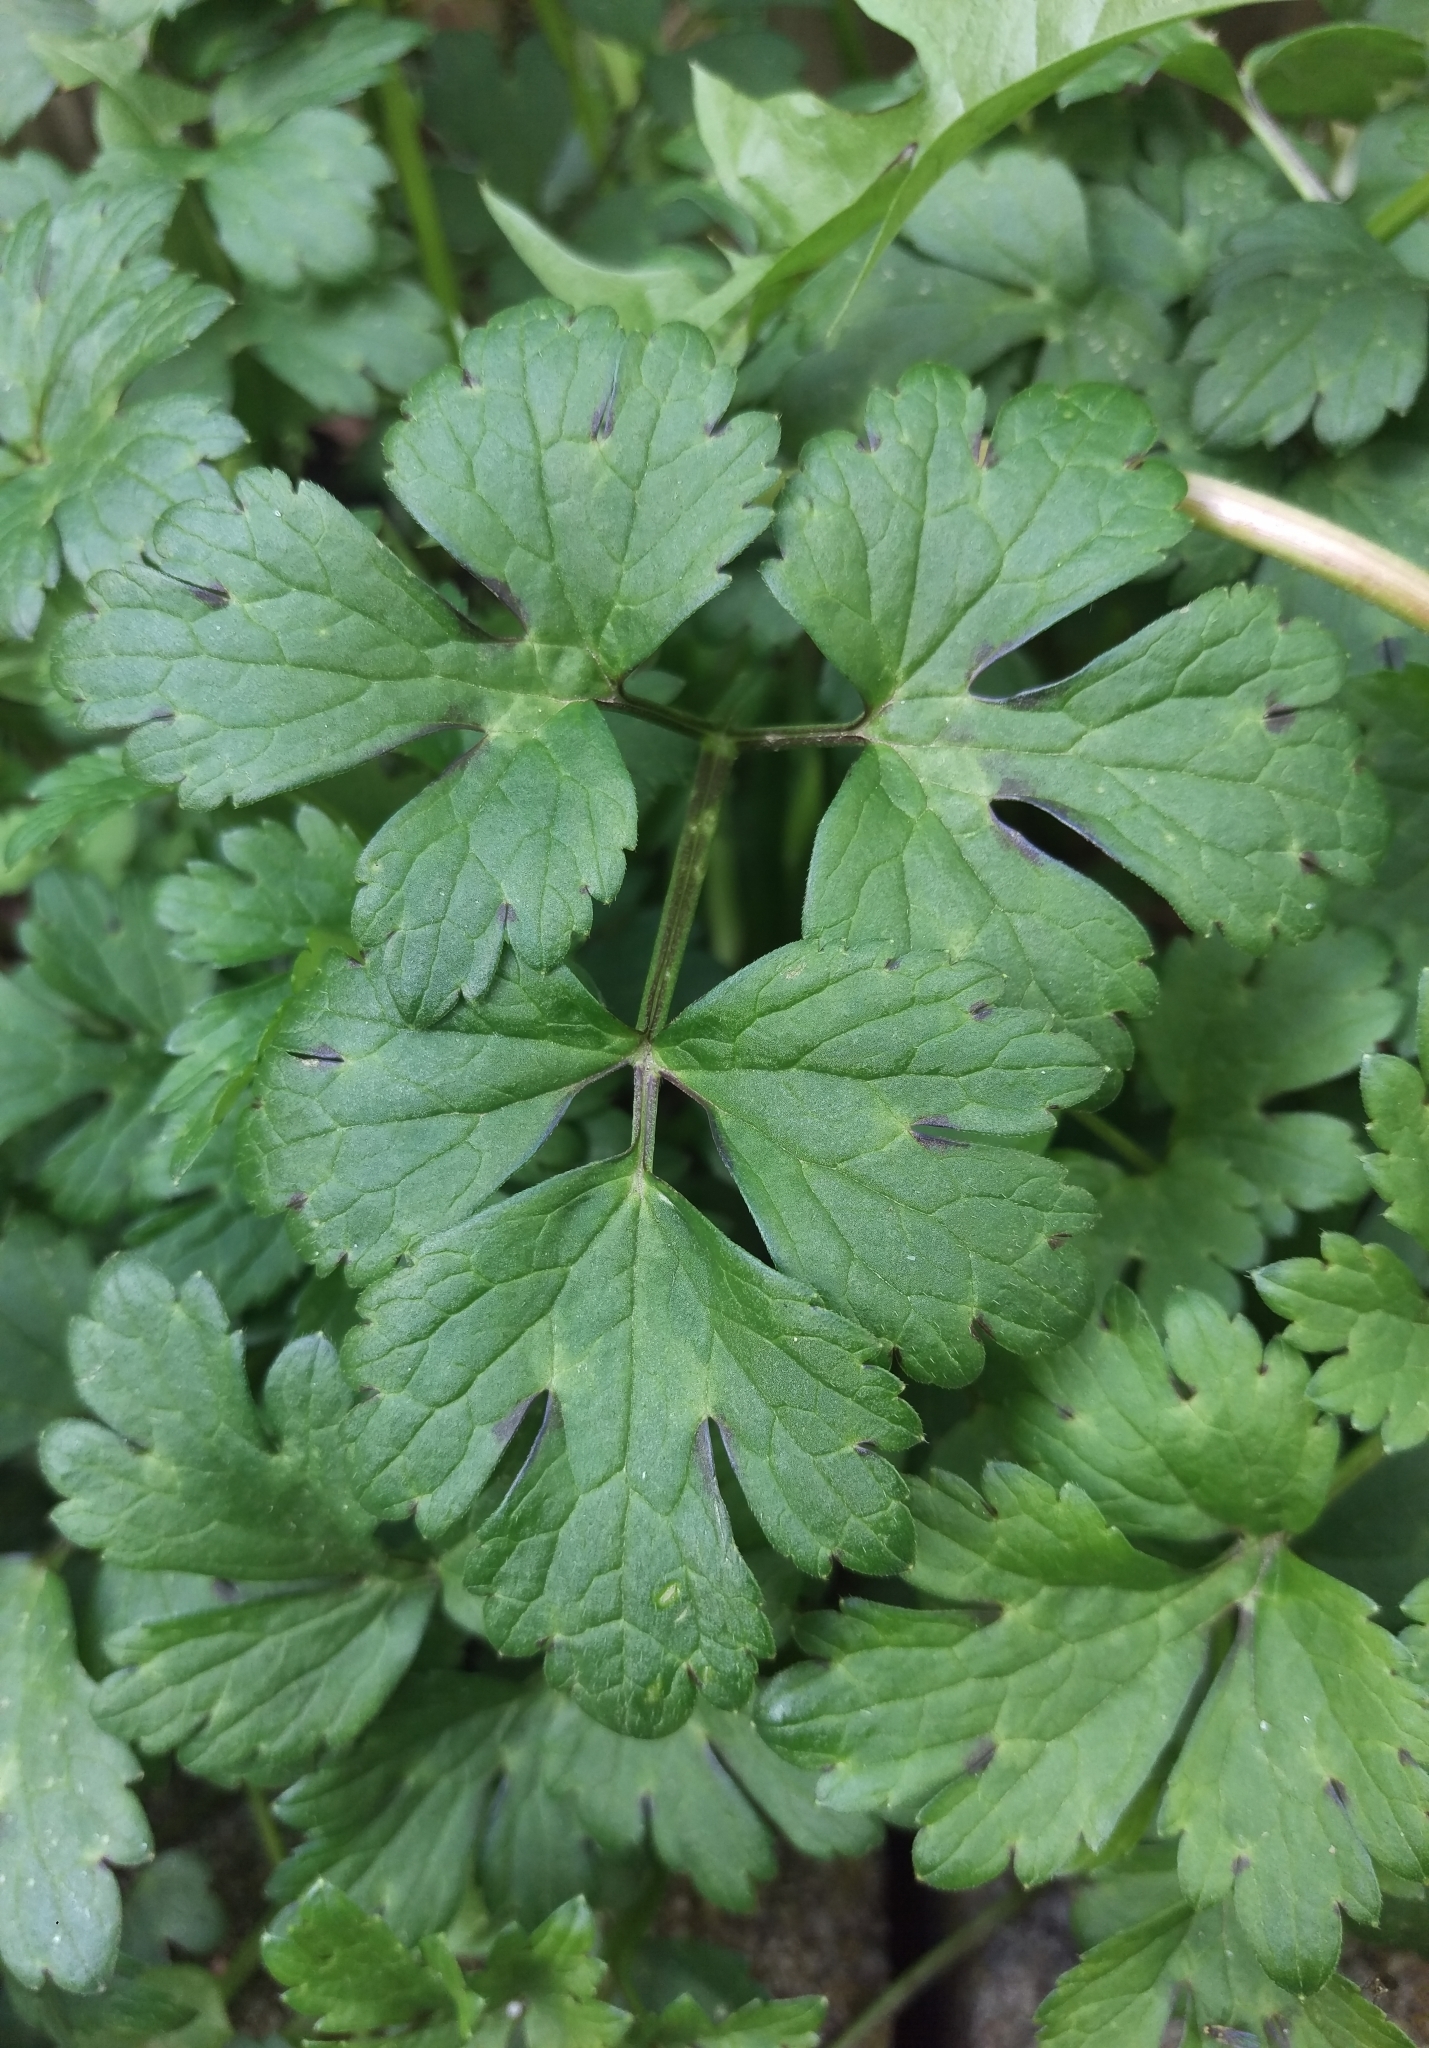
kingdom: Plantae
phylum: Tracheophyta
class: Magnoliopsida
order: Ranunculales
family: Ranunculaceae
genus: Ranunculus
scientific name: Ranunculus repens
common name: Creeping buttercup
